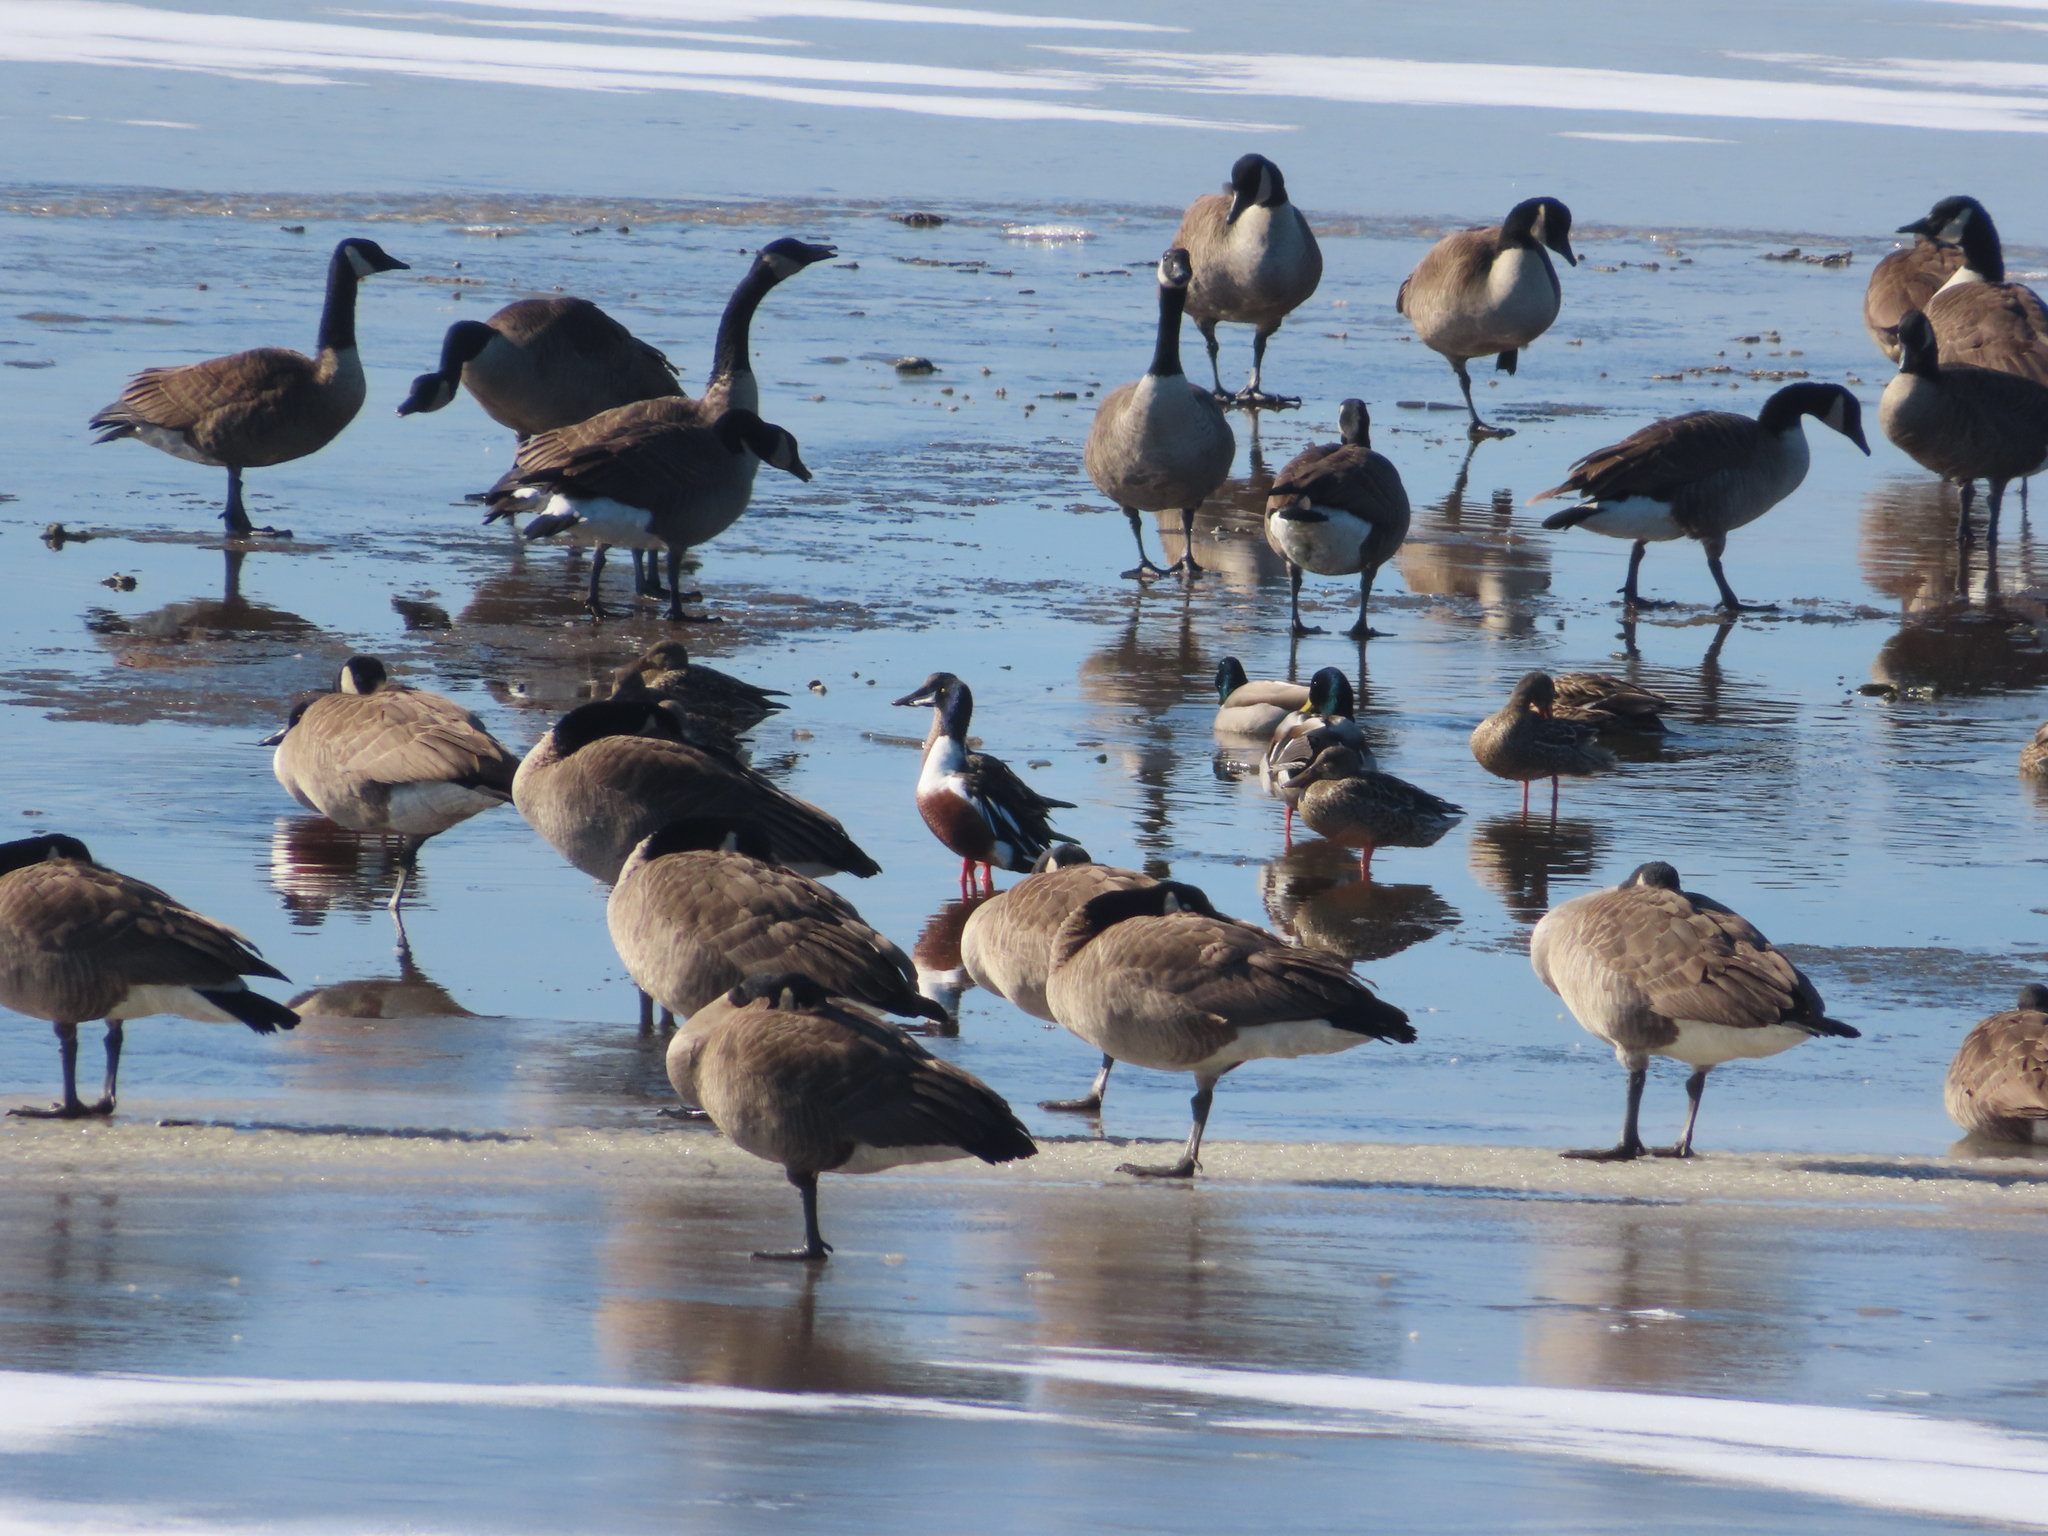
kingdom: Animalia
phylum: Chordata
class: Aves
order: Anseriformes
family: Anatidae
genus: Spatula
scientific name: Spatula clypeata
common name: Northern shoveler
